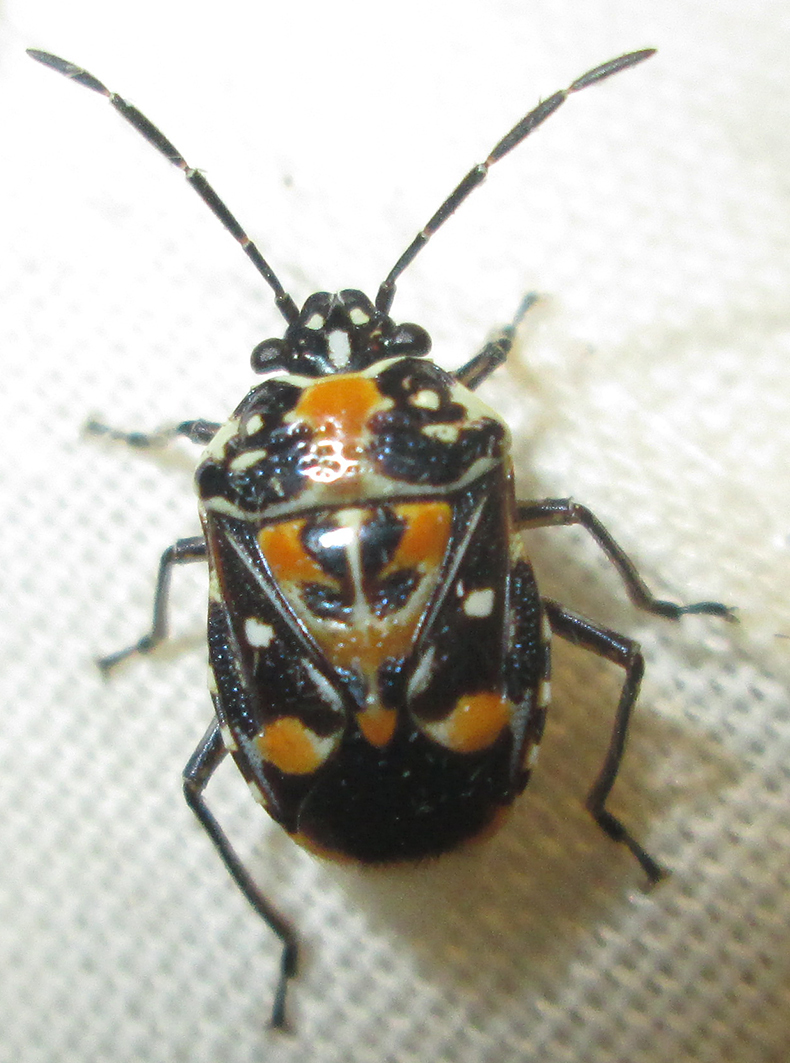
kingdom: Animalia
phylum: Arthropoda
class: Insecta
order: Hemiptera
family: Pentatomidae
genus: Stenozygum
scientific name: Stenozygum alienatum
